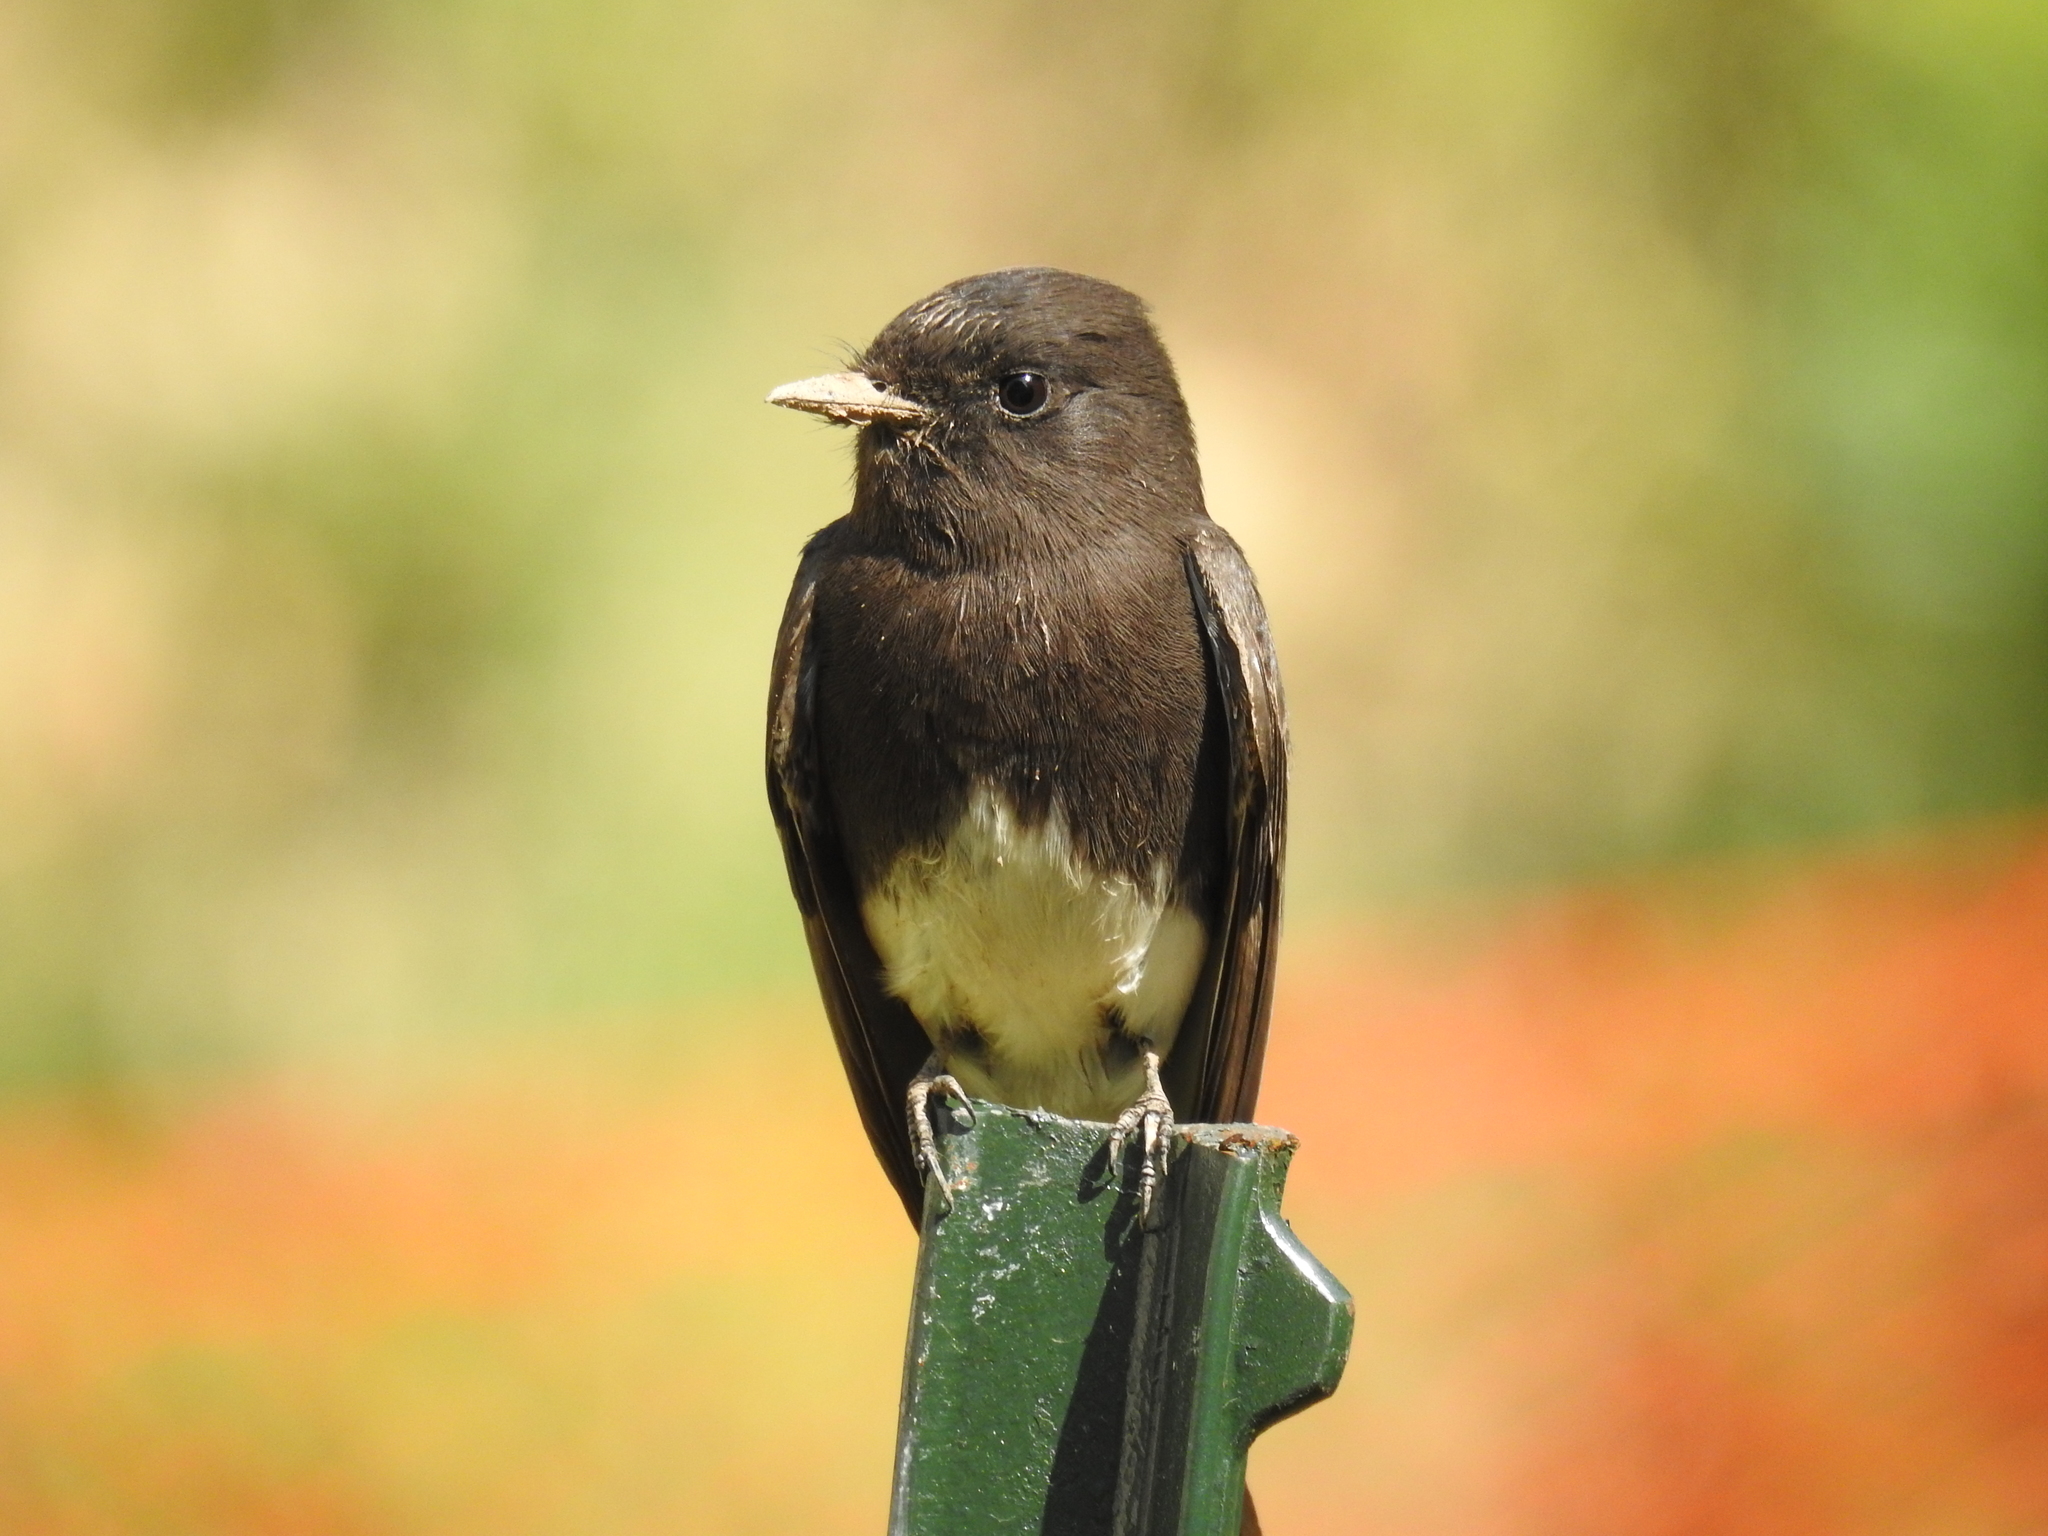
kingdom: Animalia
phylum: Chordata
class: Aves
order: Passeriformes
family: Tyrannidae
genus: Sayornis
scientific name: Sayornis nigricans
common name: Black phoebe
